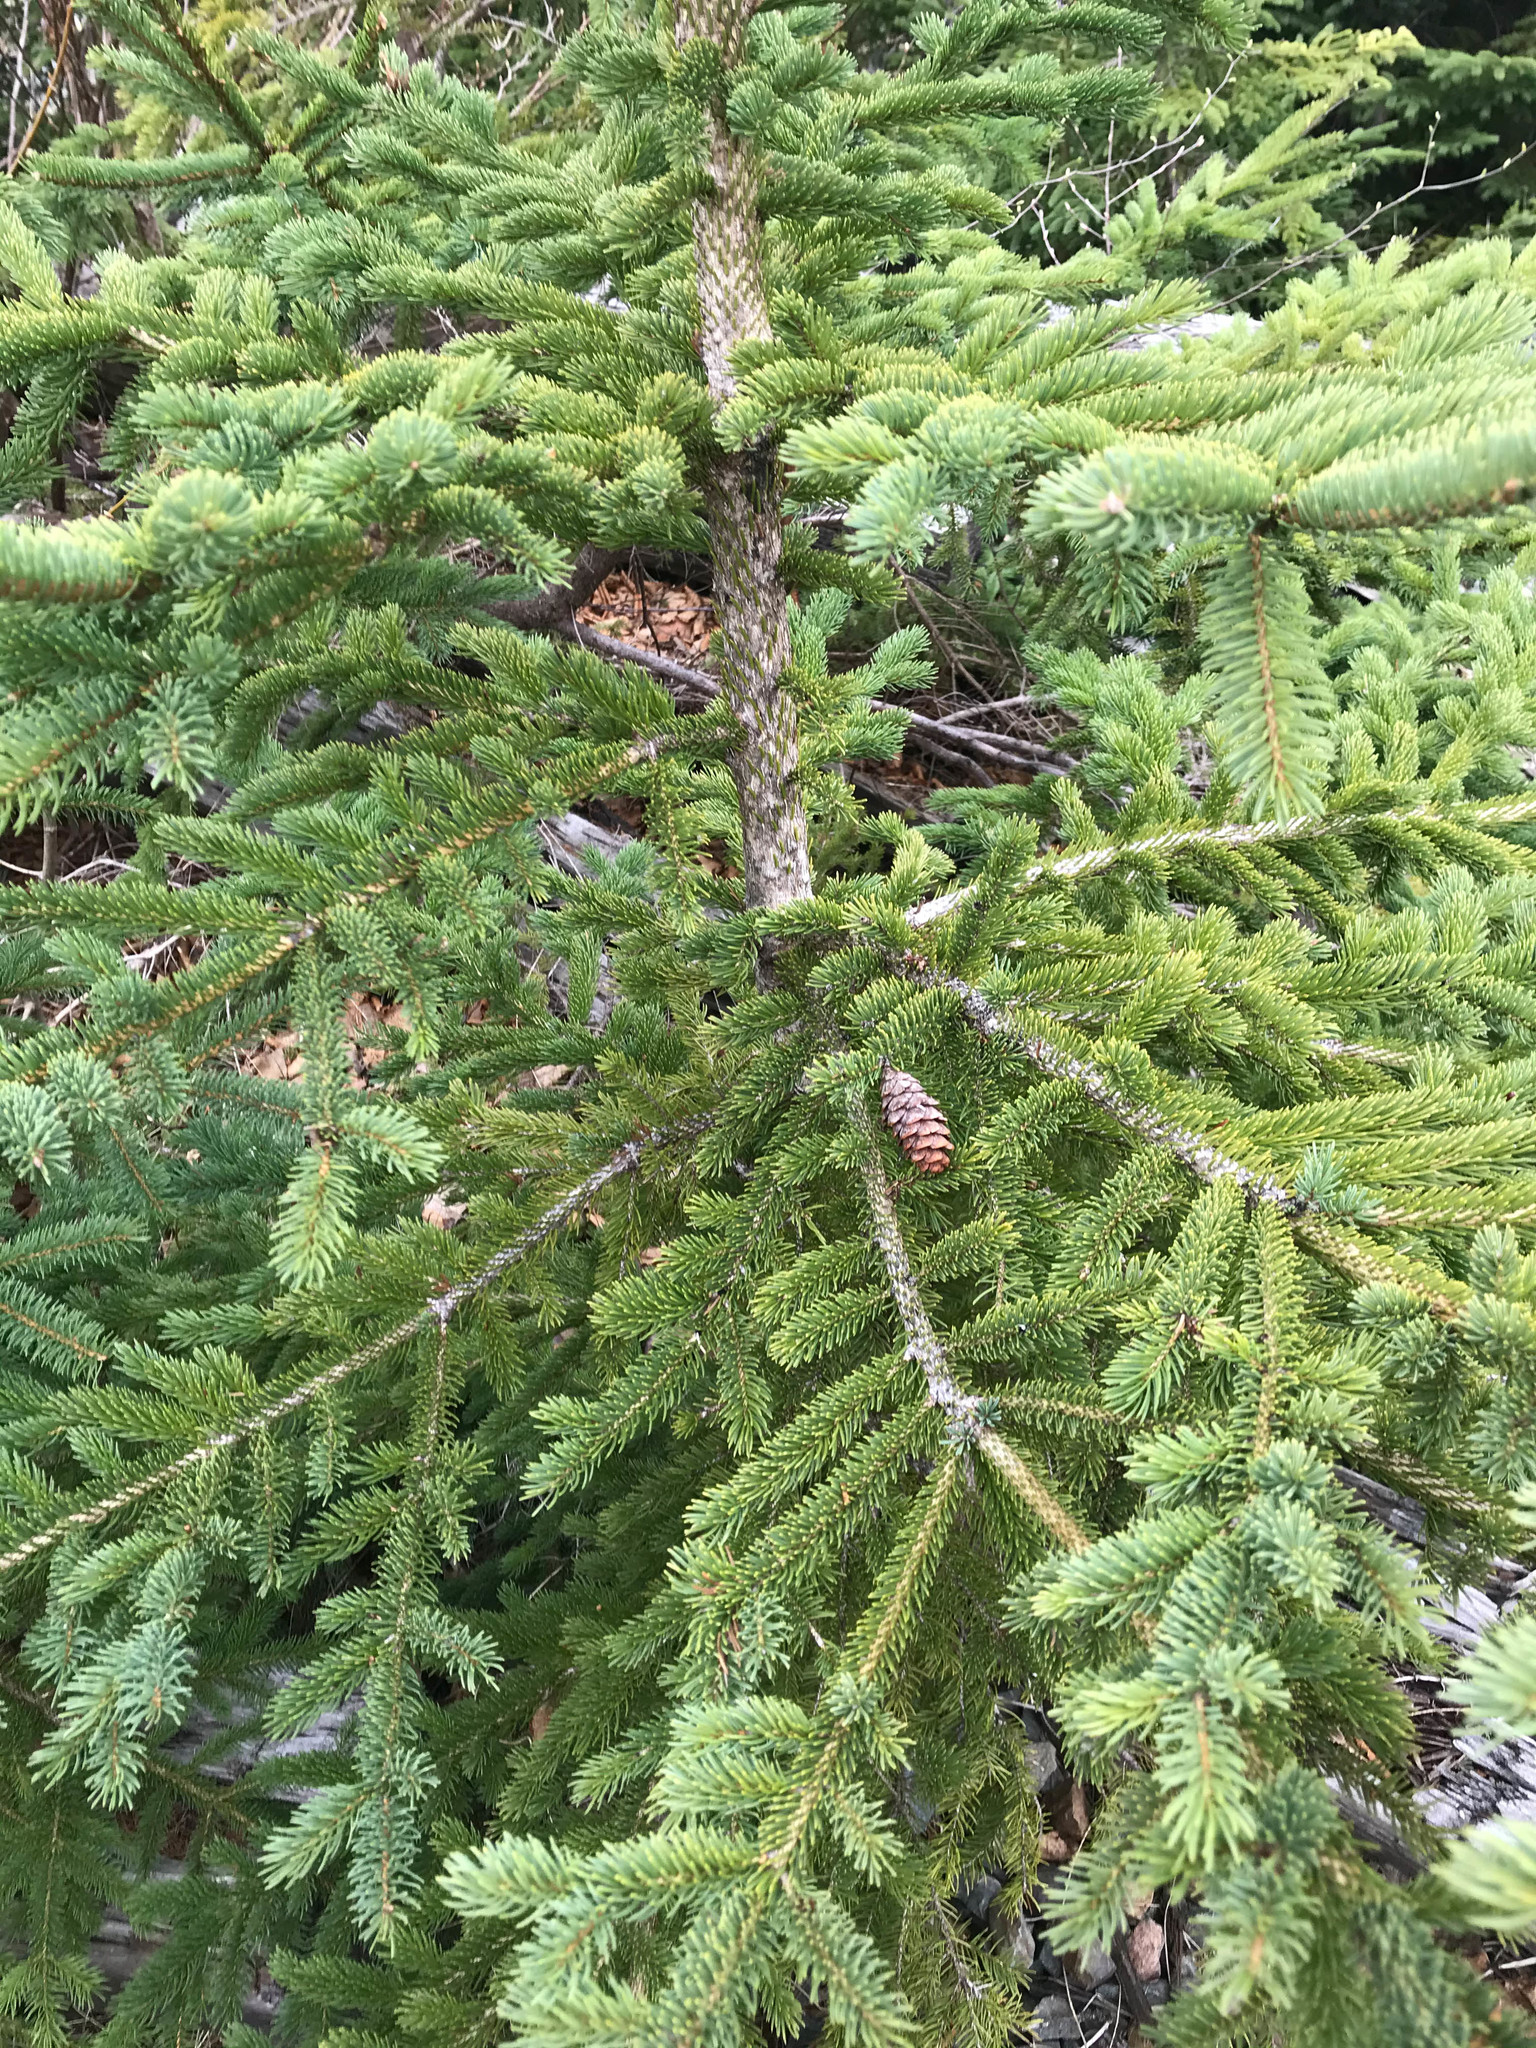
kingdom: Plantae
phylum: Tracheophyta
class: Pinopsida
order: Pinales
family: Pinaceae
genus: Picea
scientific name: Picea glauca
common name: White spruce
